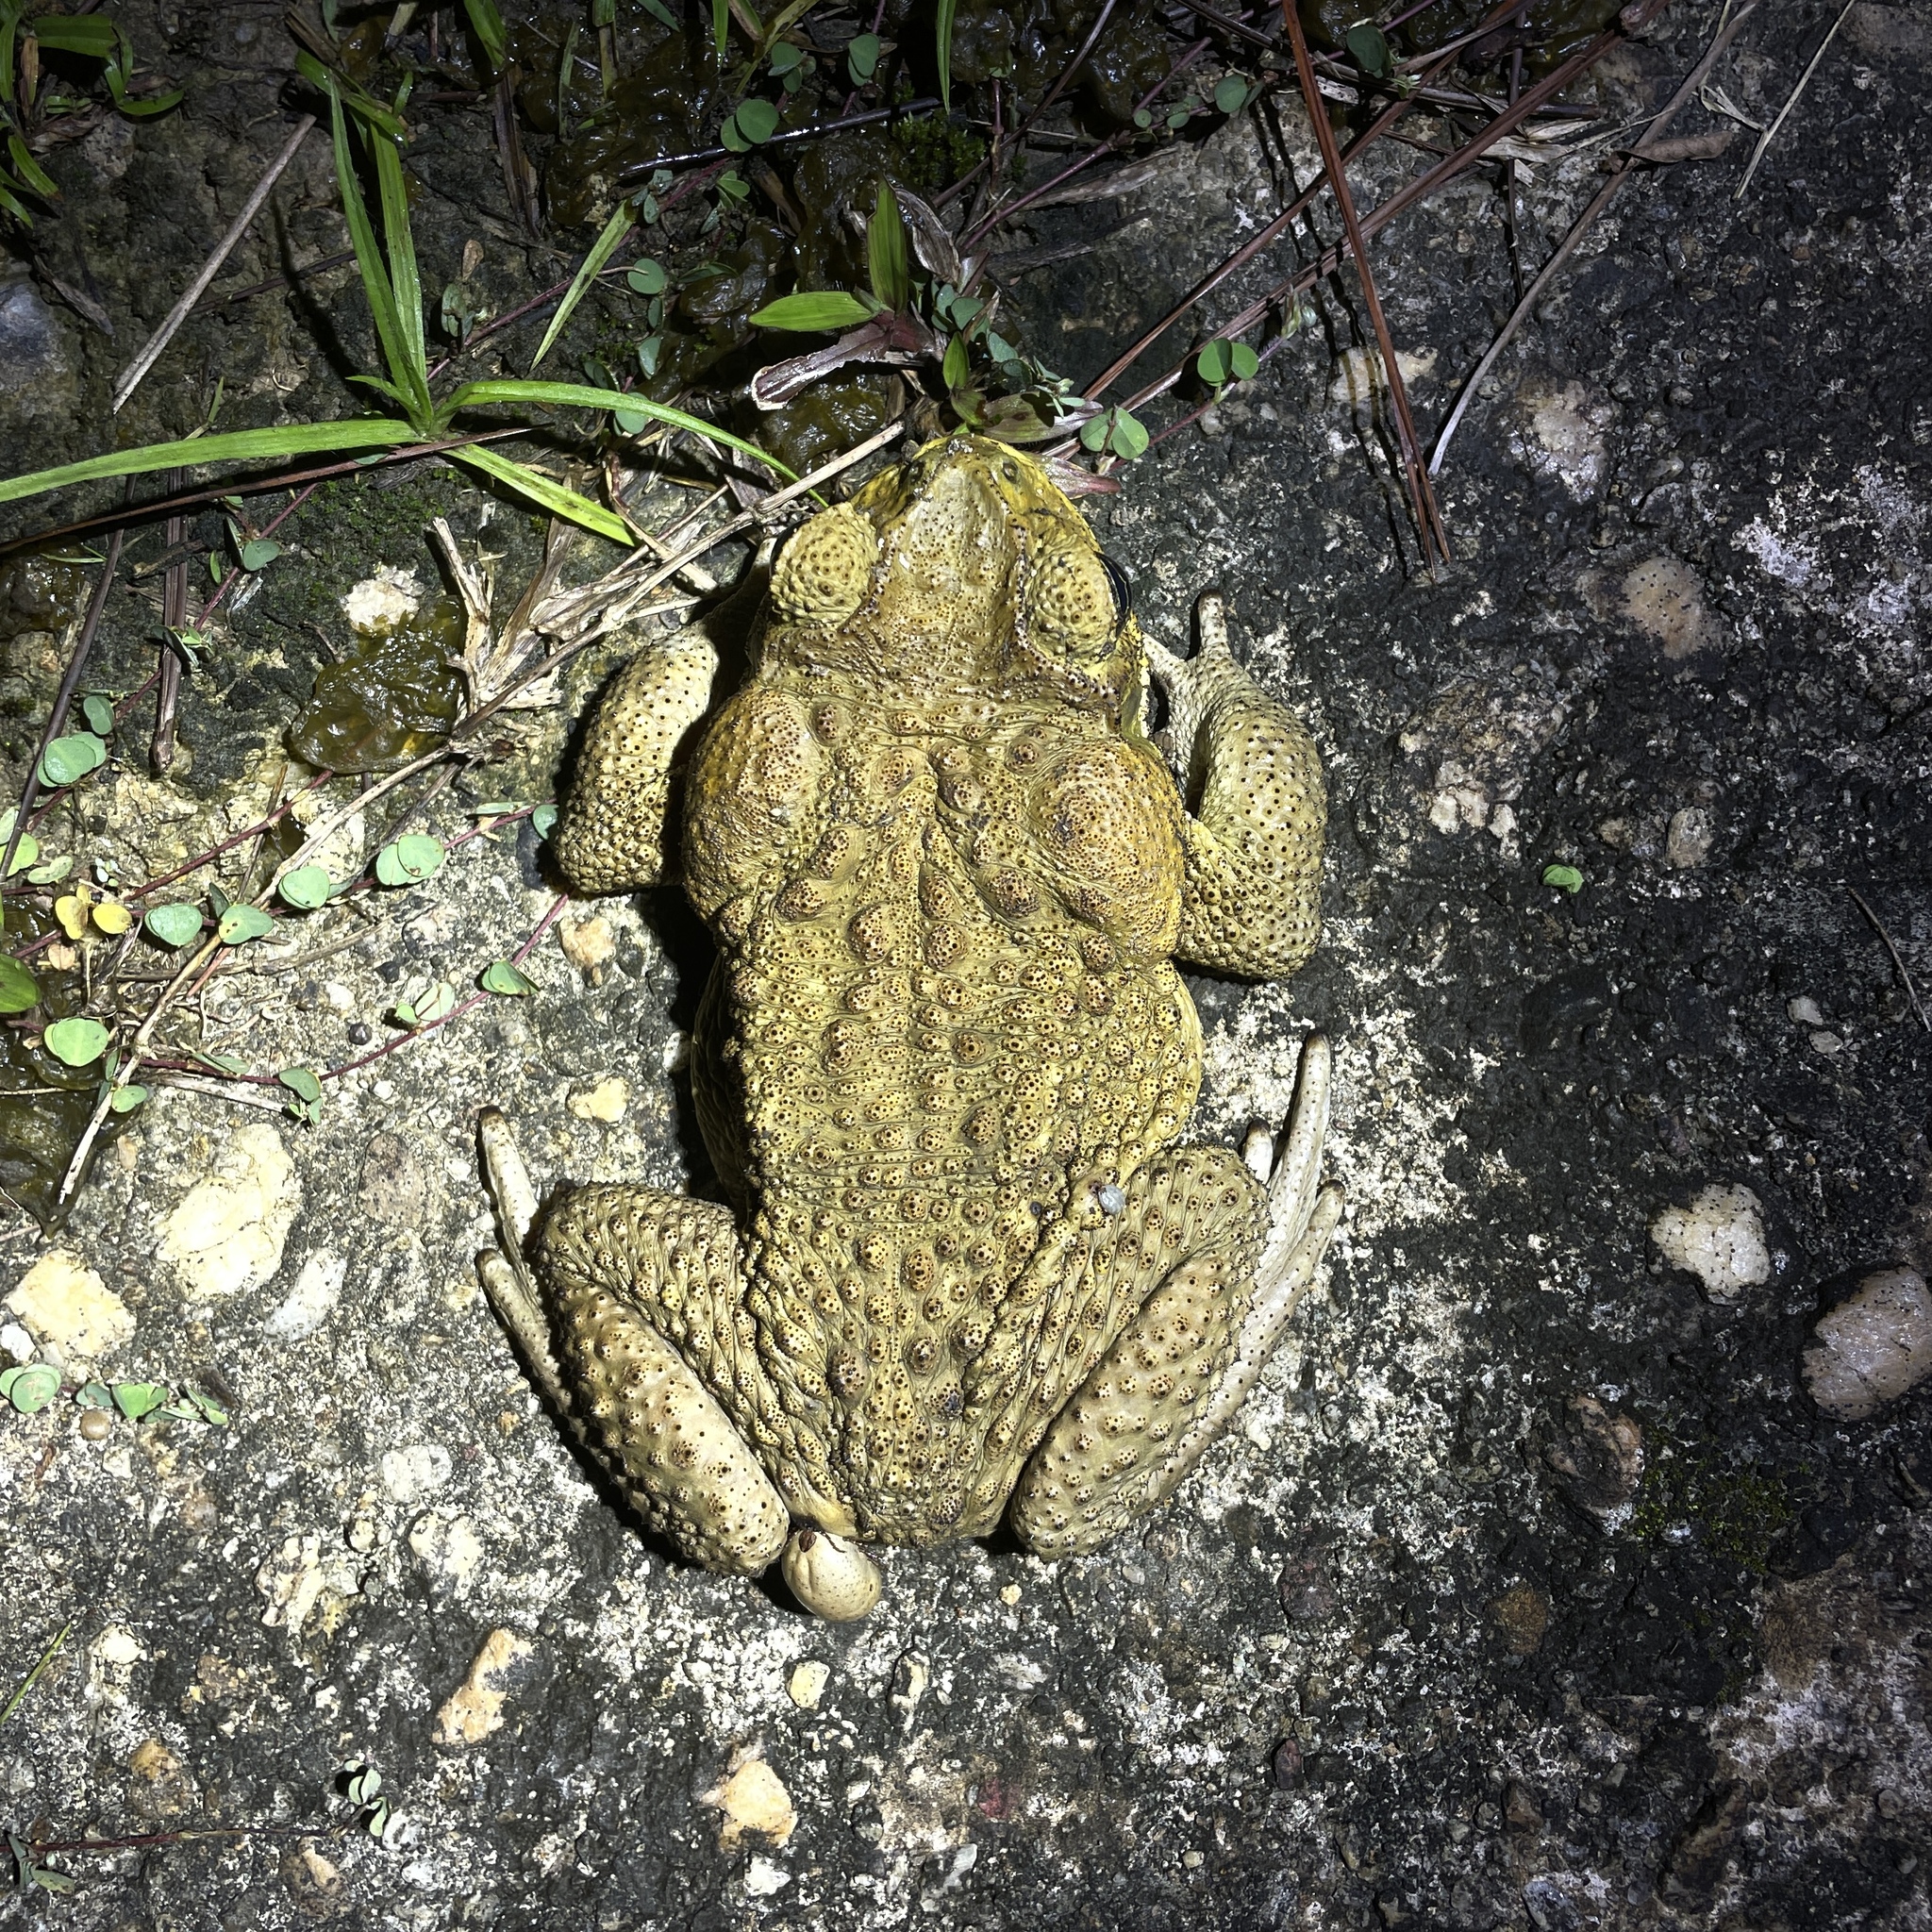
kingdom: Animalia
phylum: Chordata
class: Amphibia
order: Anura
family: Bufonidae
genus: Rhinella
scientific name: Rhinella marina
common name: Cane toad
